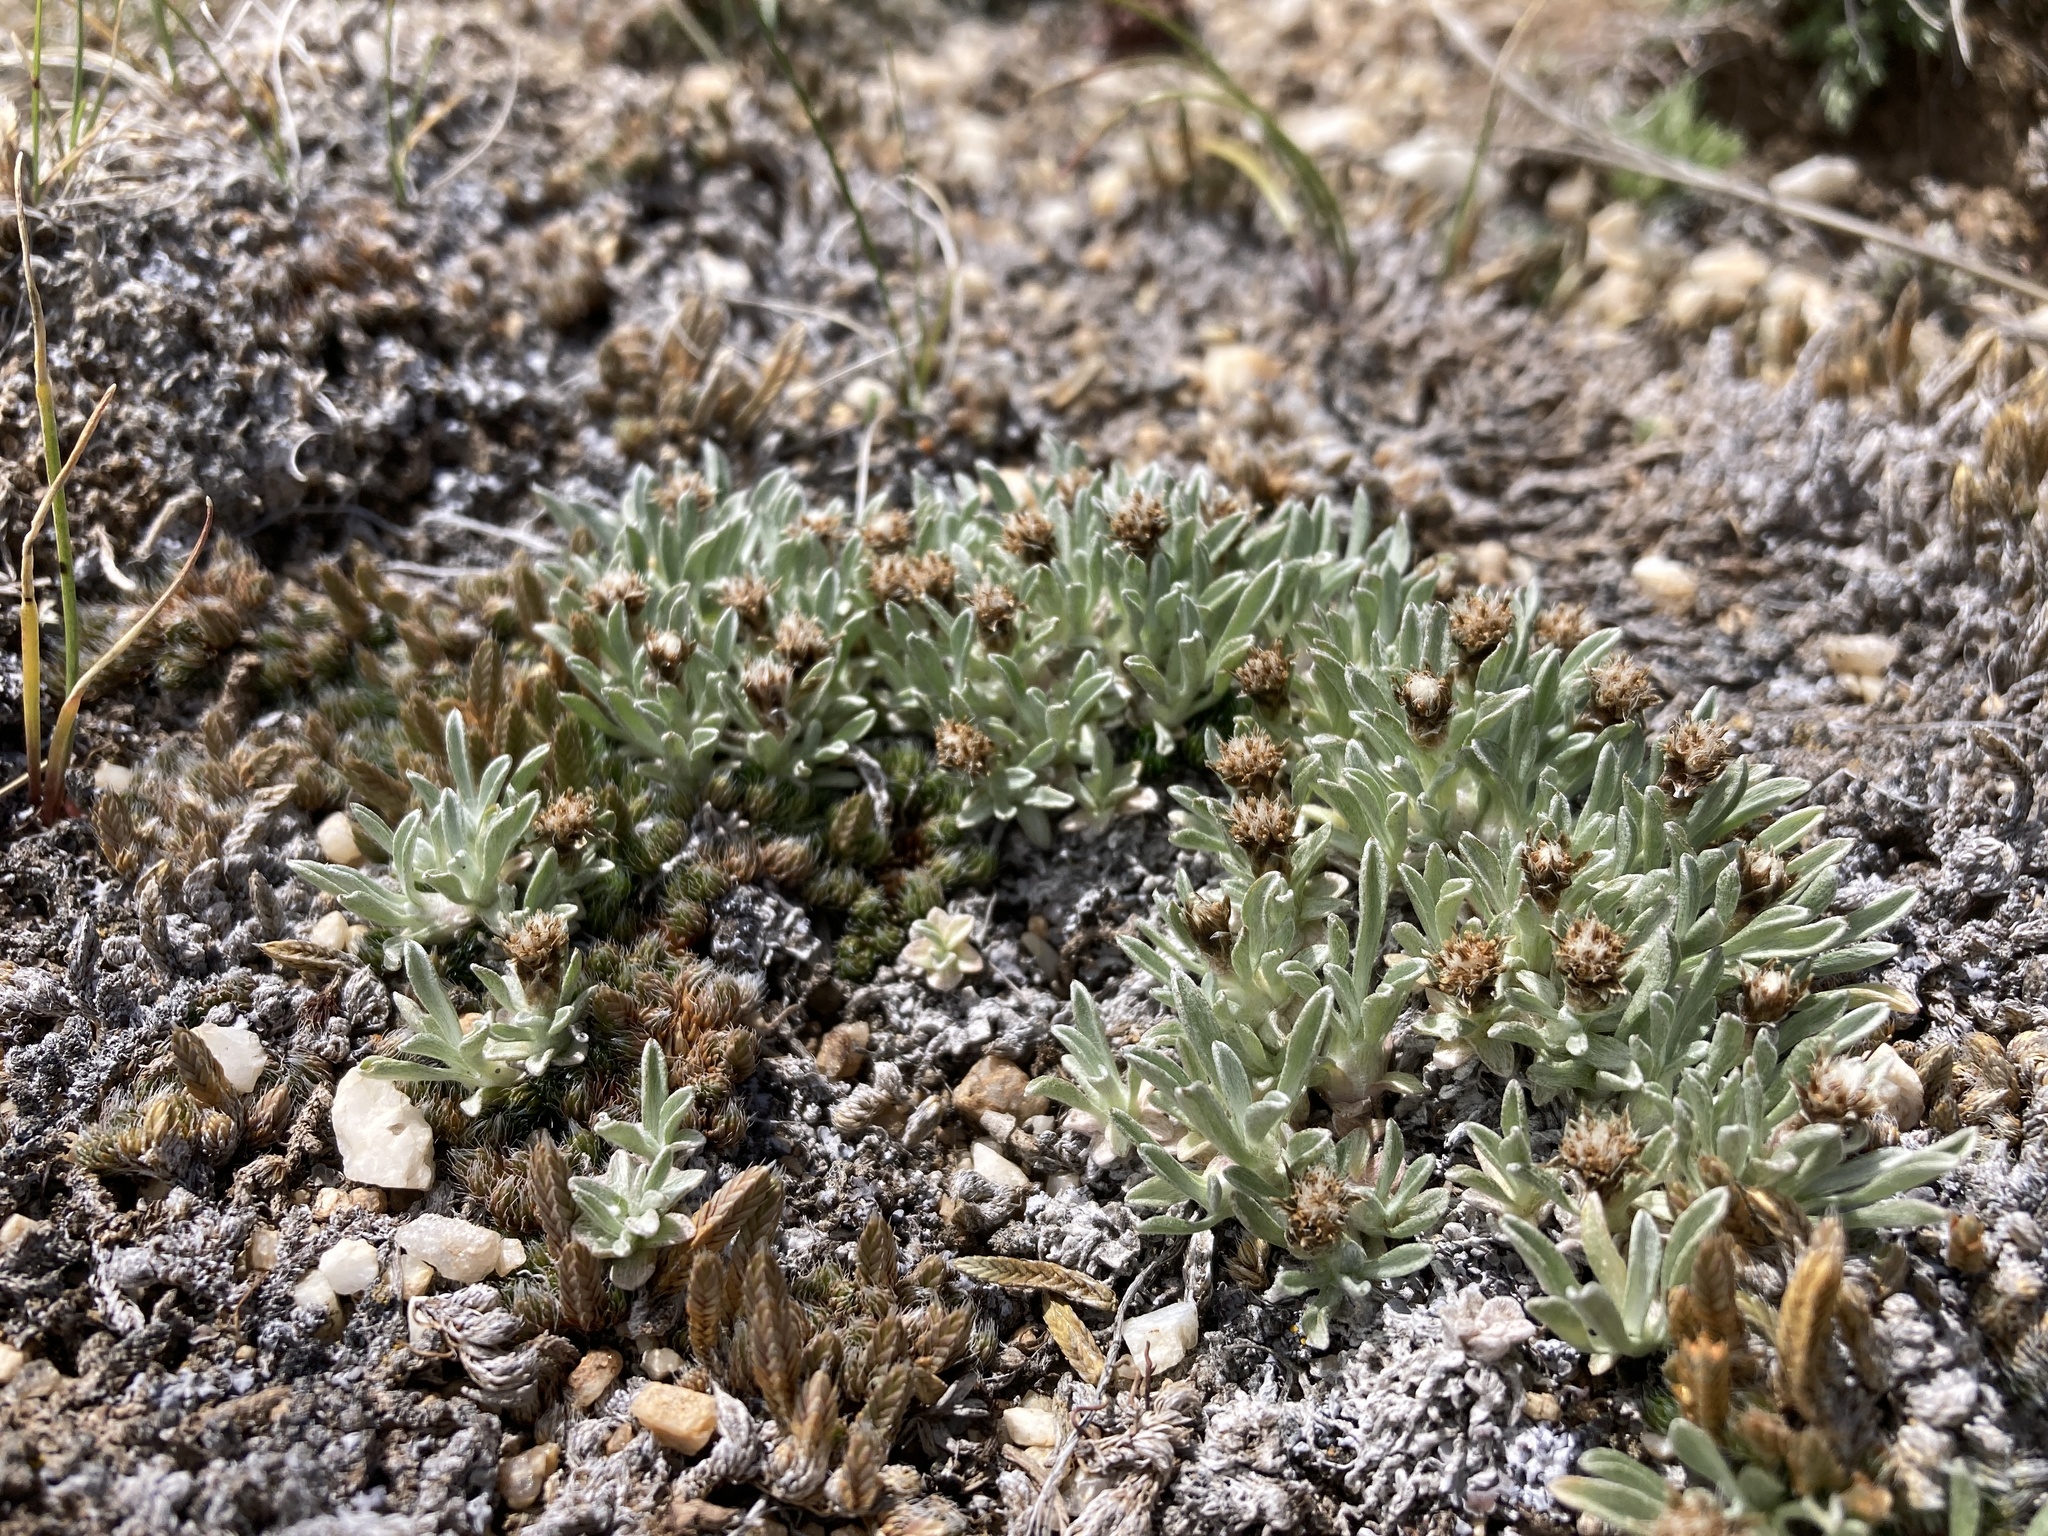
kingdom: Plantae
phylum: Tracheophyta
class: Magnoliopsida
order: Asterales
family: Asteraceae
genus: Antennaria
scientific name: Antennaria dimorpha
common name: Cushion pussytoes
